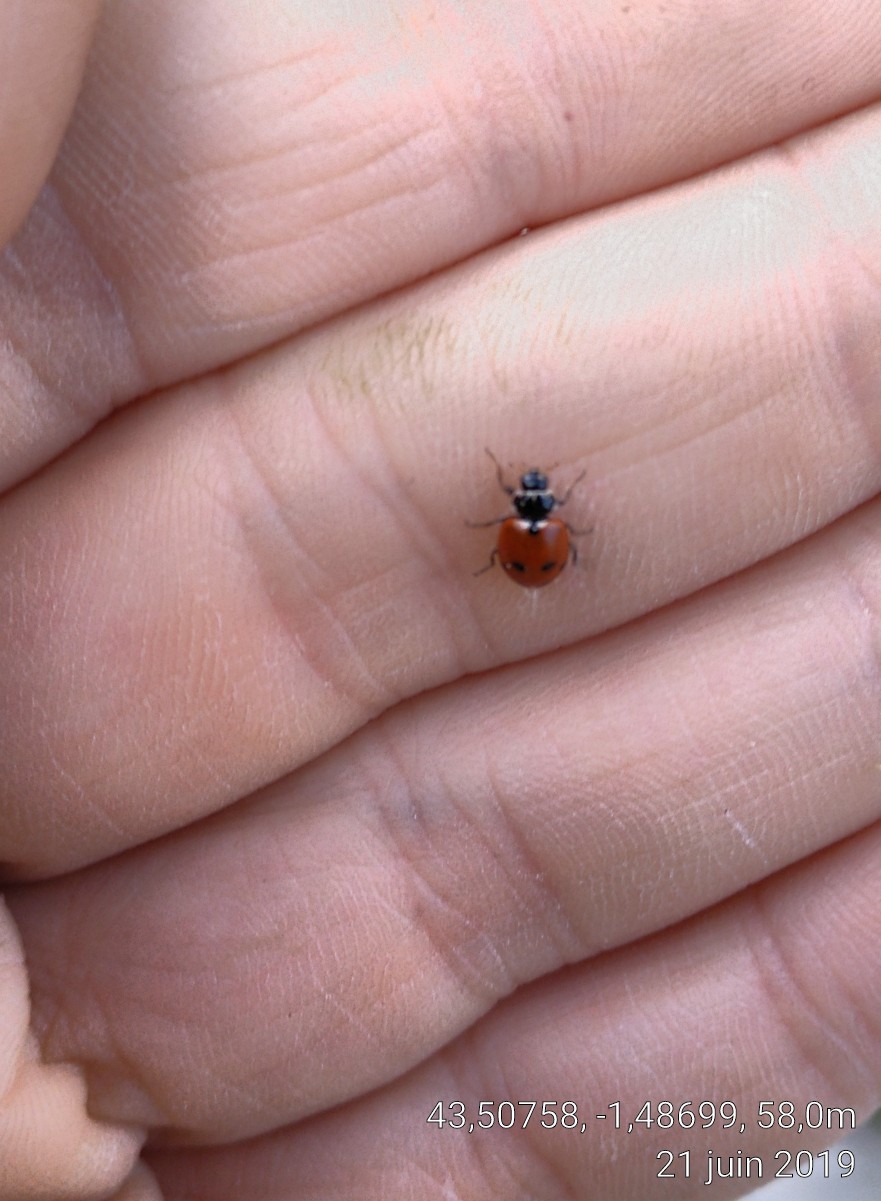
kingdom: Animalia
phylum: Arthropoda
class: Insecta
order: Coleoptera
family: Coccinellidae
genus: Hippodamia
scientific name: Hippodamia variegata
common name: Ladybird beetle
